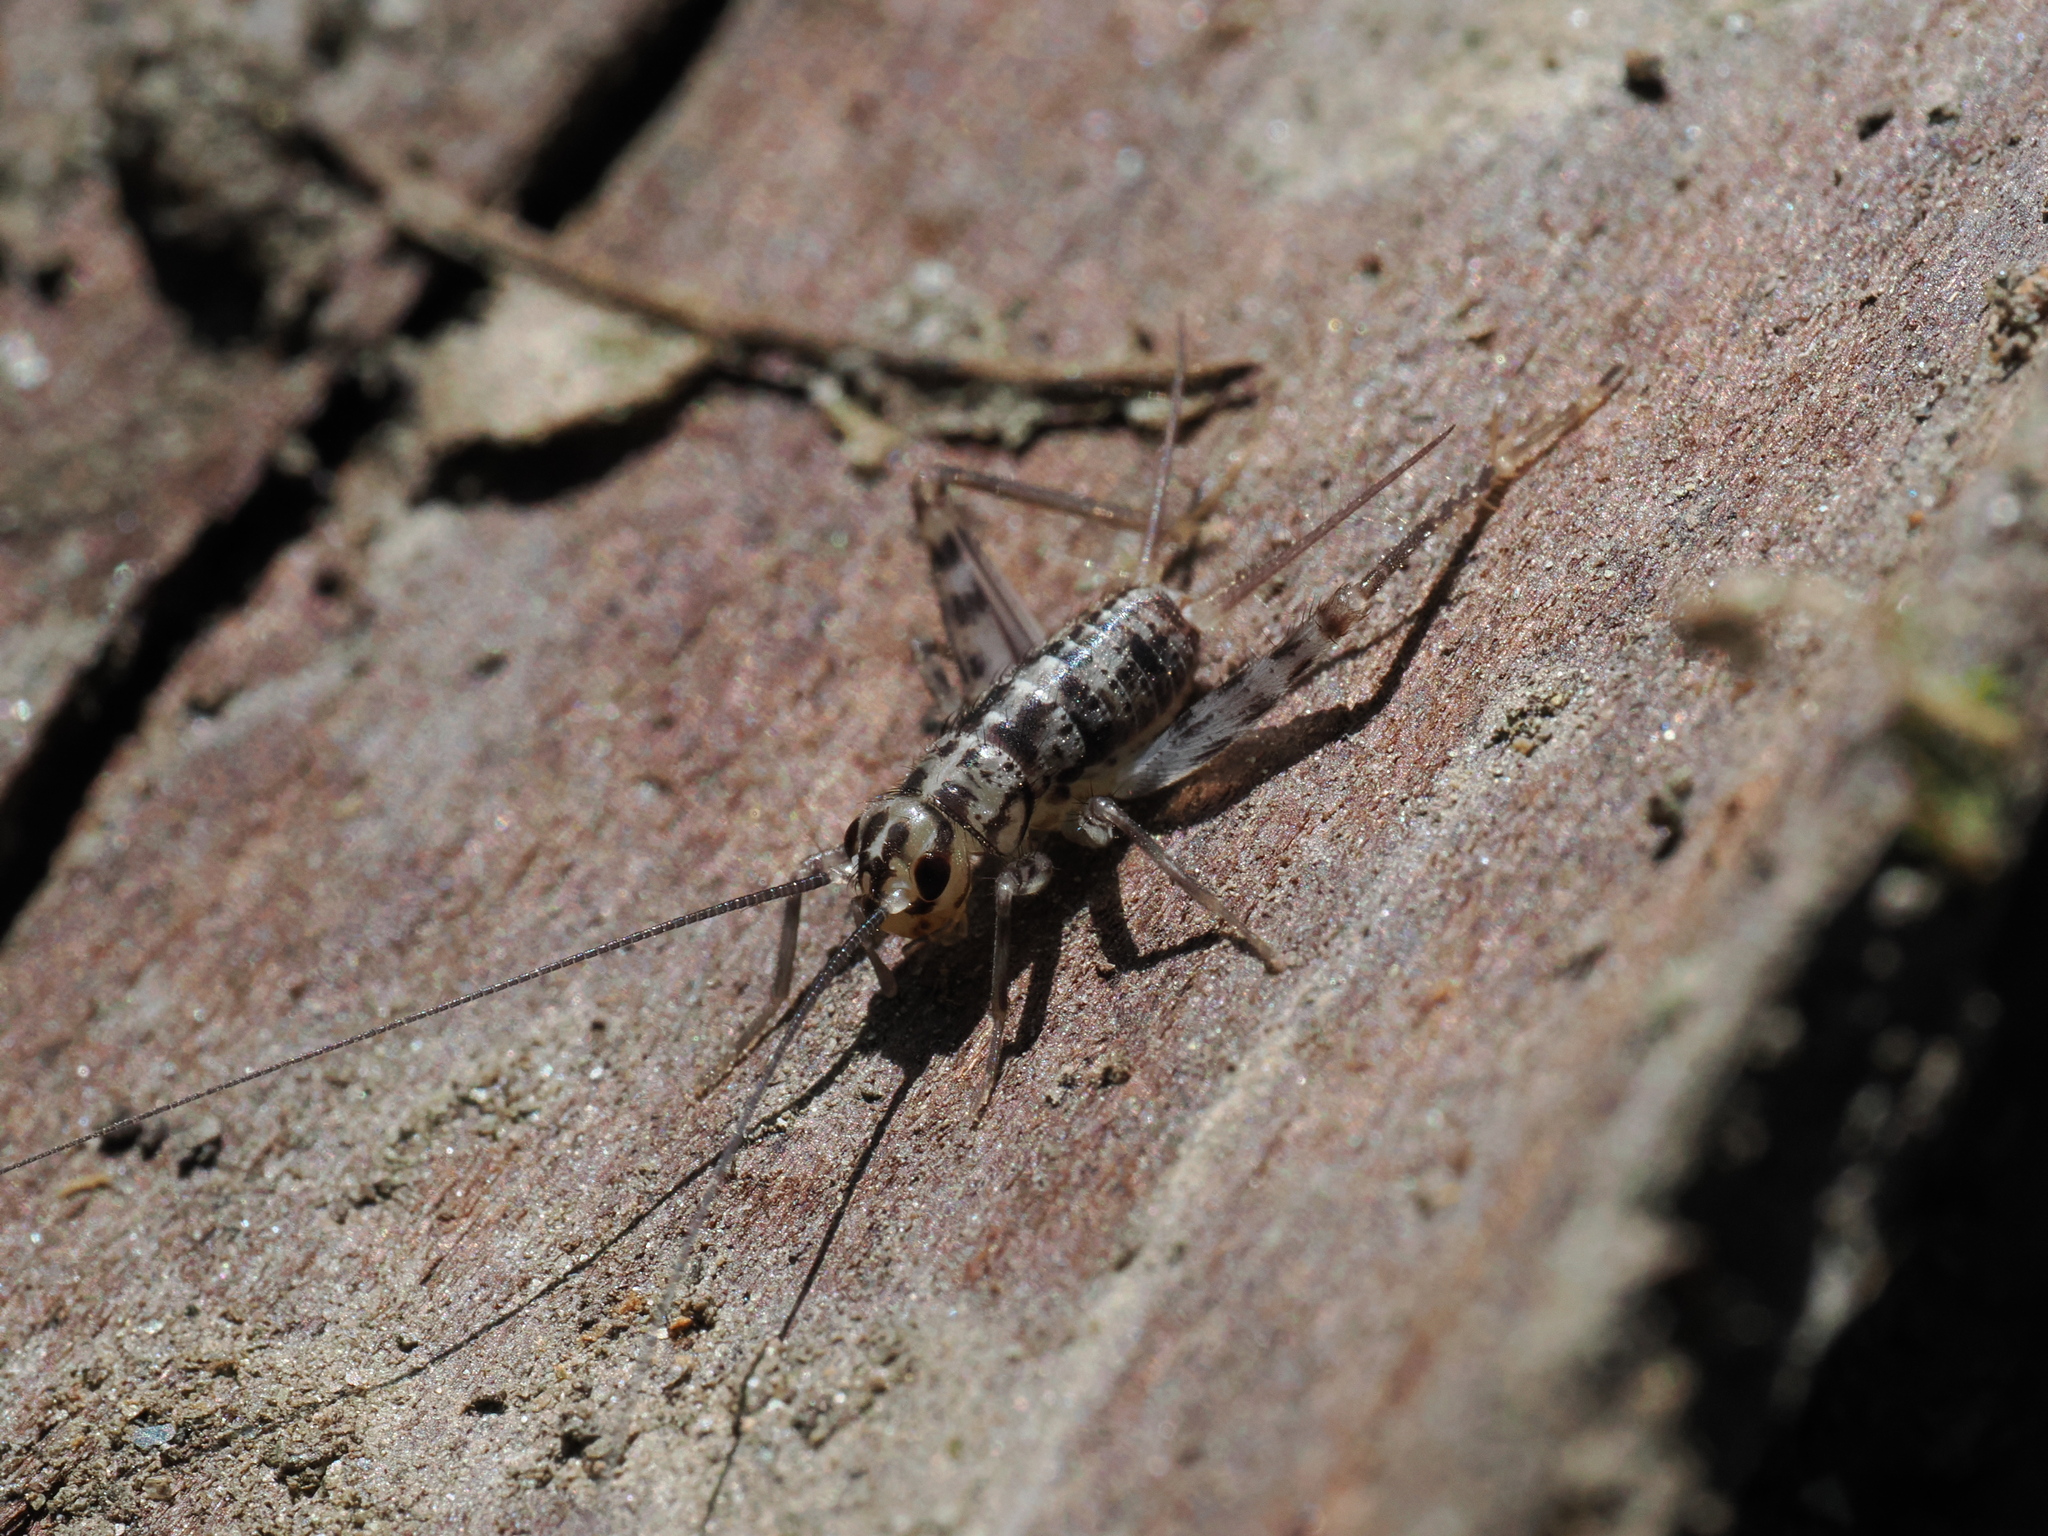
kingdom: Animalia
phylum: Arthropoda
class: Insecta
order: Orthoptera
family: Gryllidae
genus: Gryllomorpha
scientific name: Gryllomorpha dalmatina
